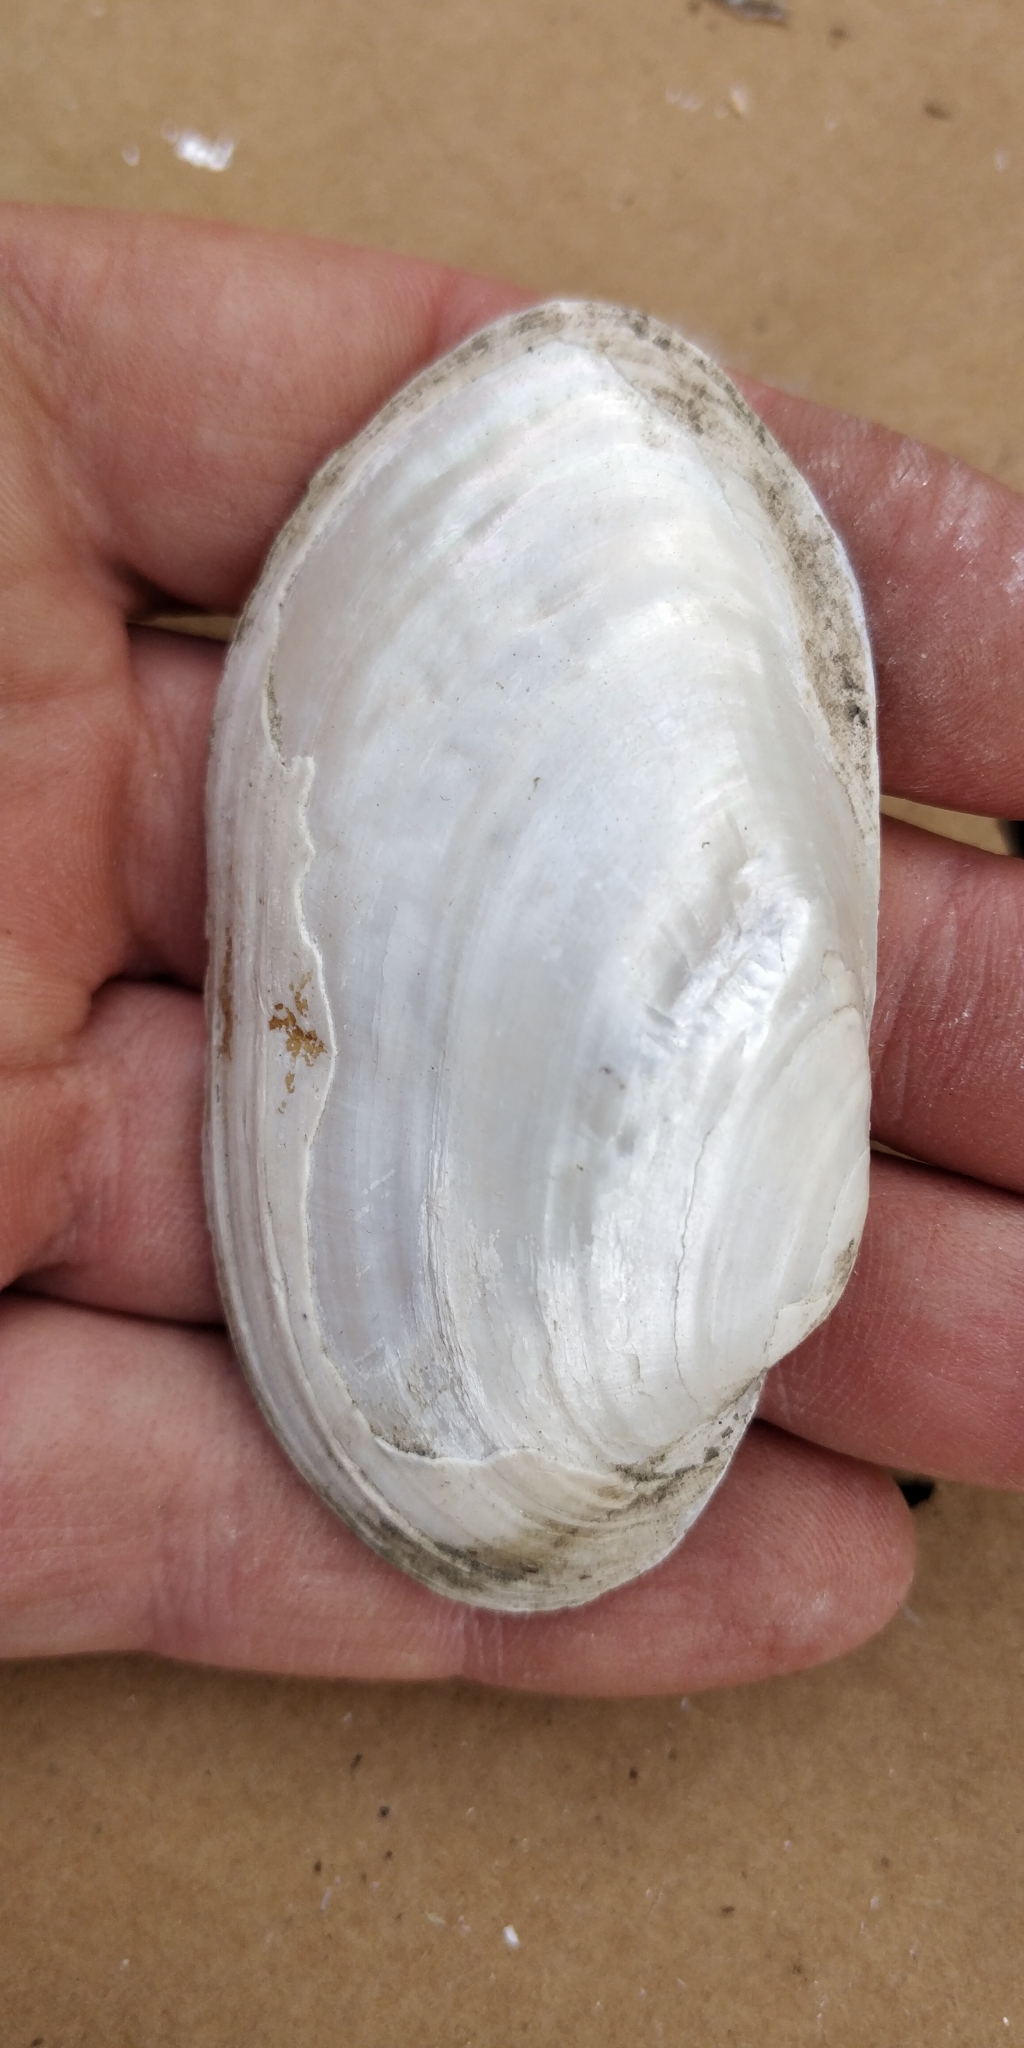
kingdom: Animalia
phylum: Mollusca
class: Bivalvia
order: Unionida
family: Unionidae
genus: Lampsilis
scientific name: Lampsilis siliquoidea
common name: Fatmucket
